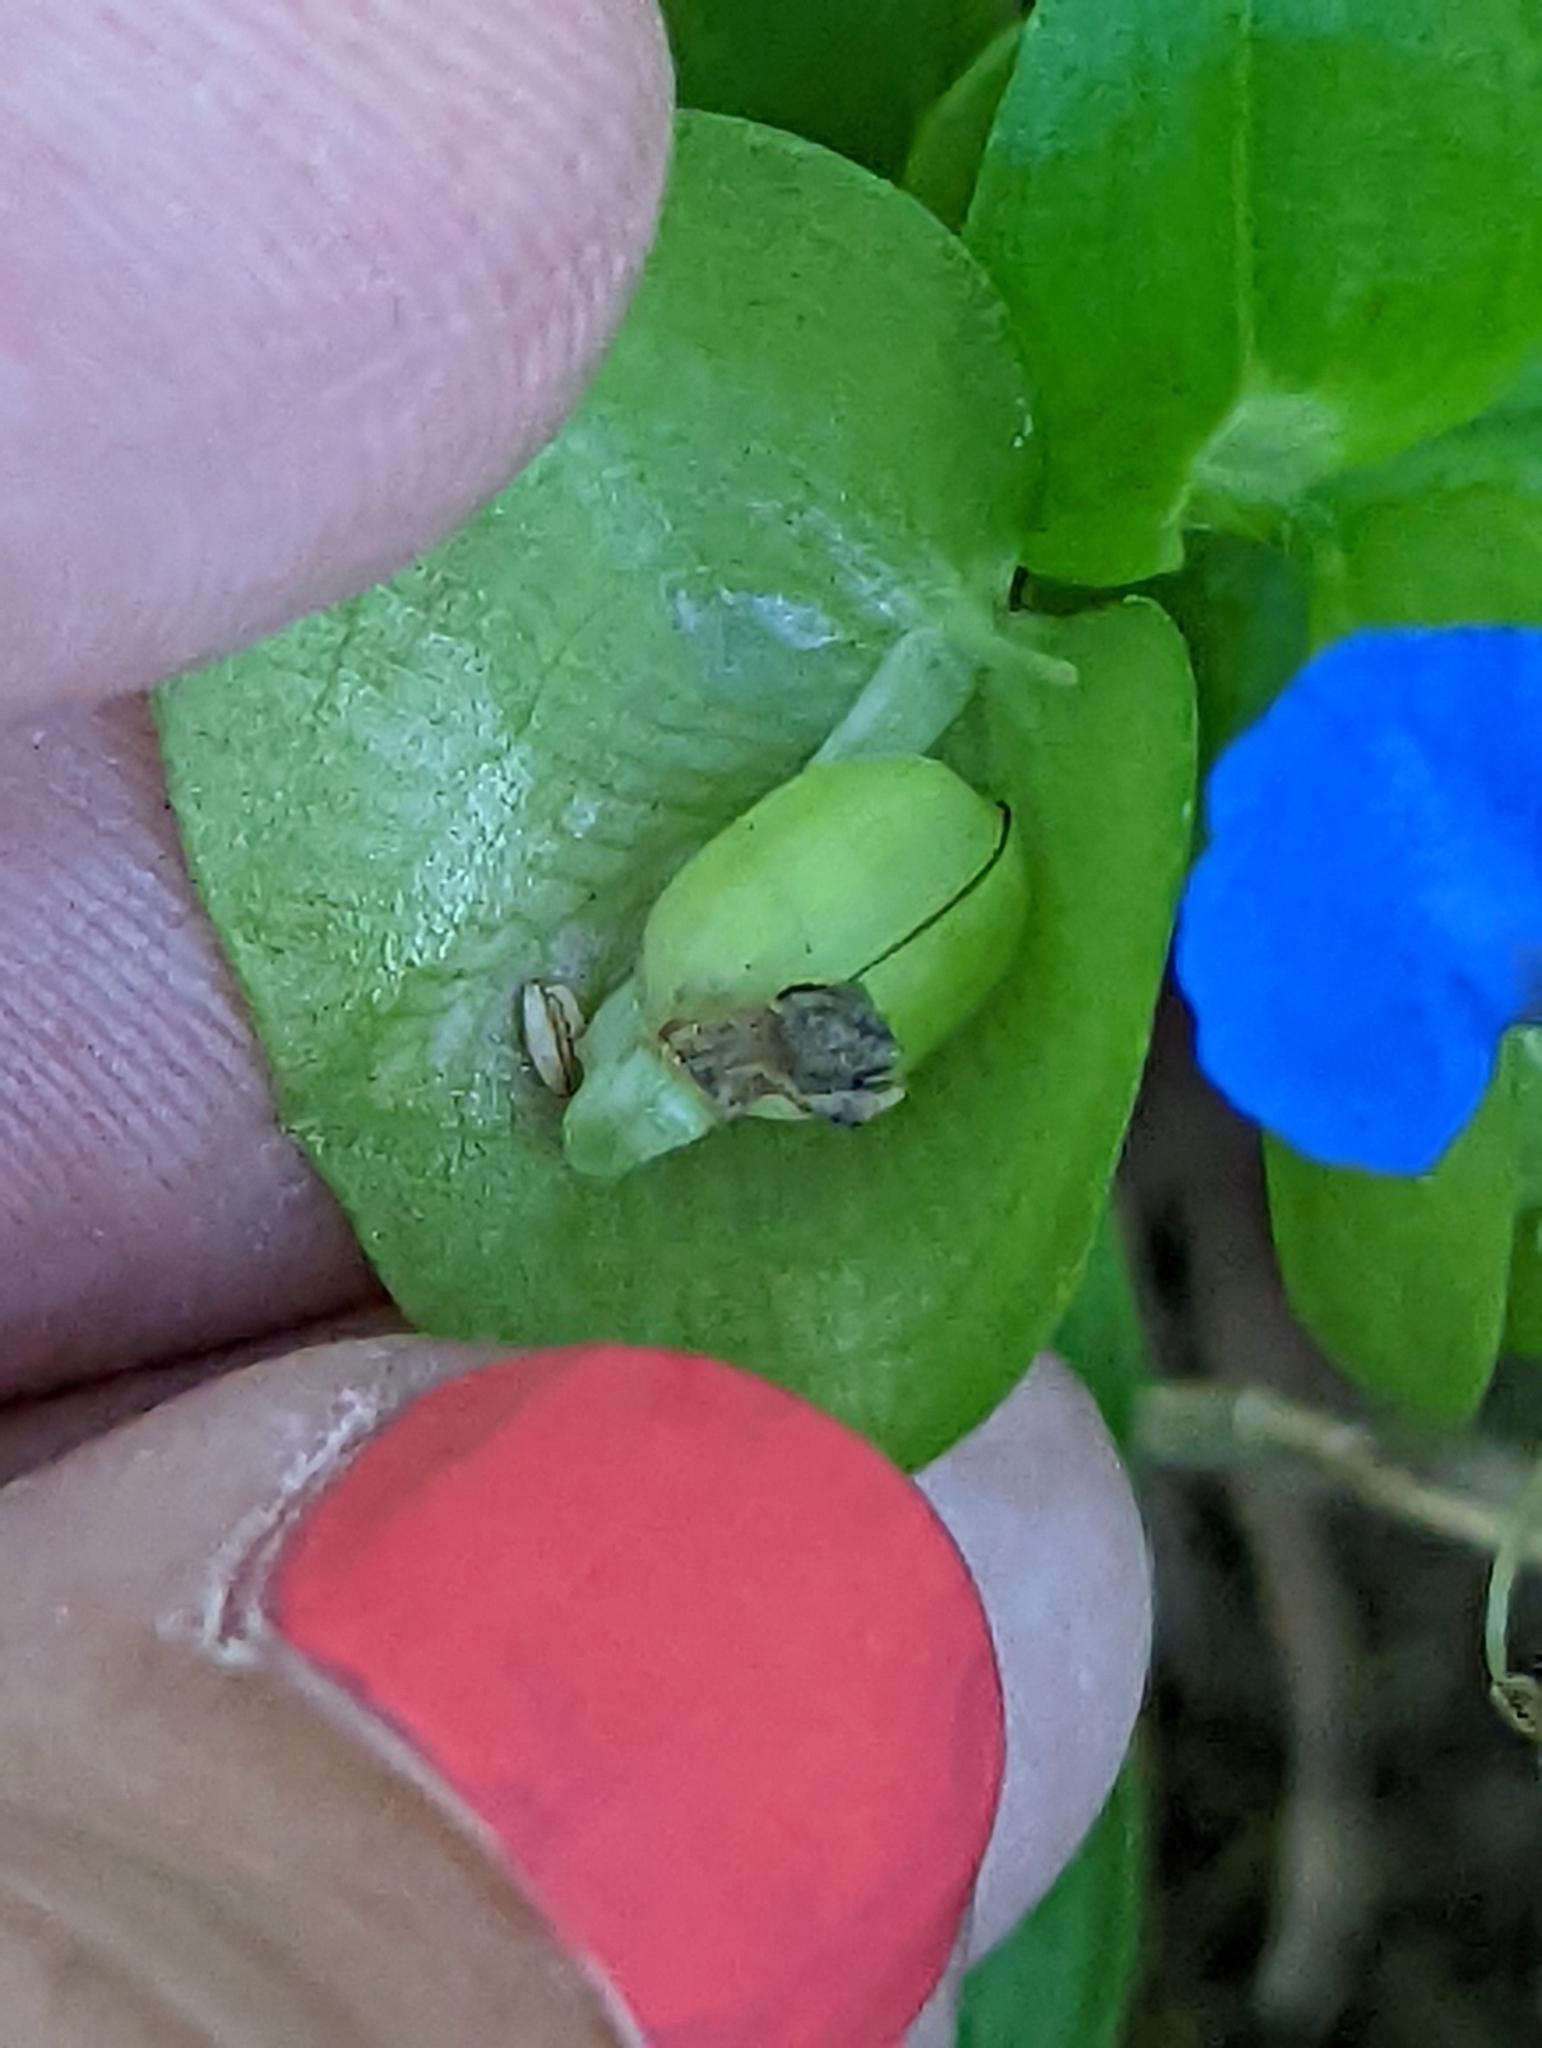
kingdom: Plantae
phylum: Tracheophyta
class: Liliopsida
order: Commelinales
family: Commelinaceae
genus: Commelina
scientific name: Commelina communis
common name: Asiatic dayflower
